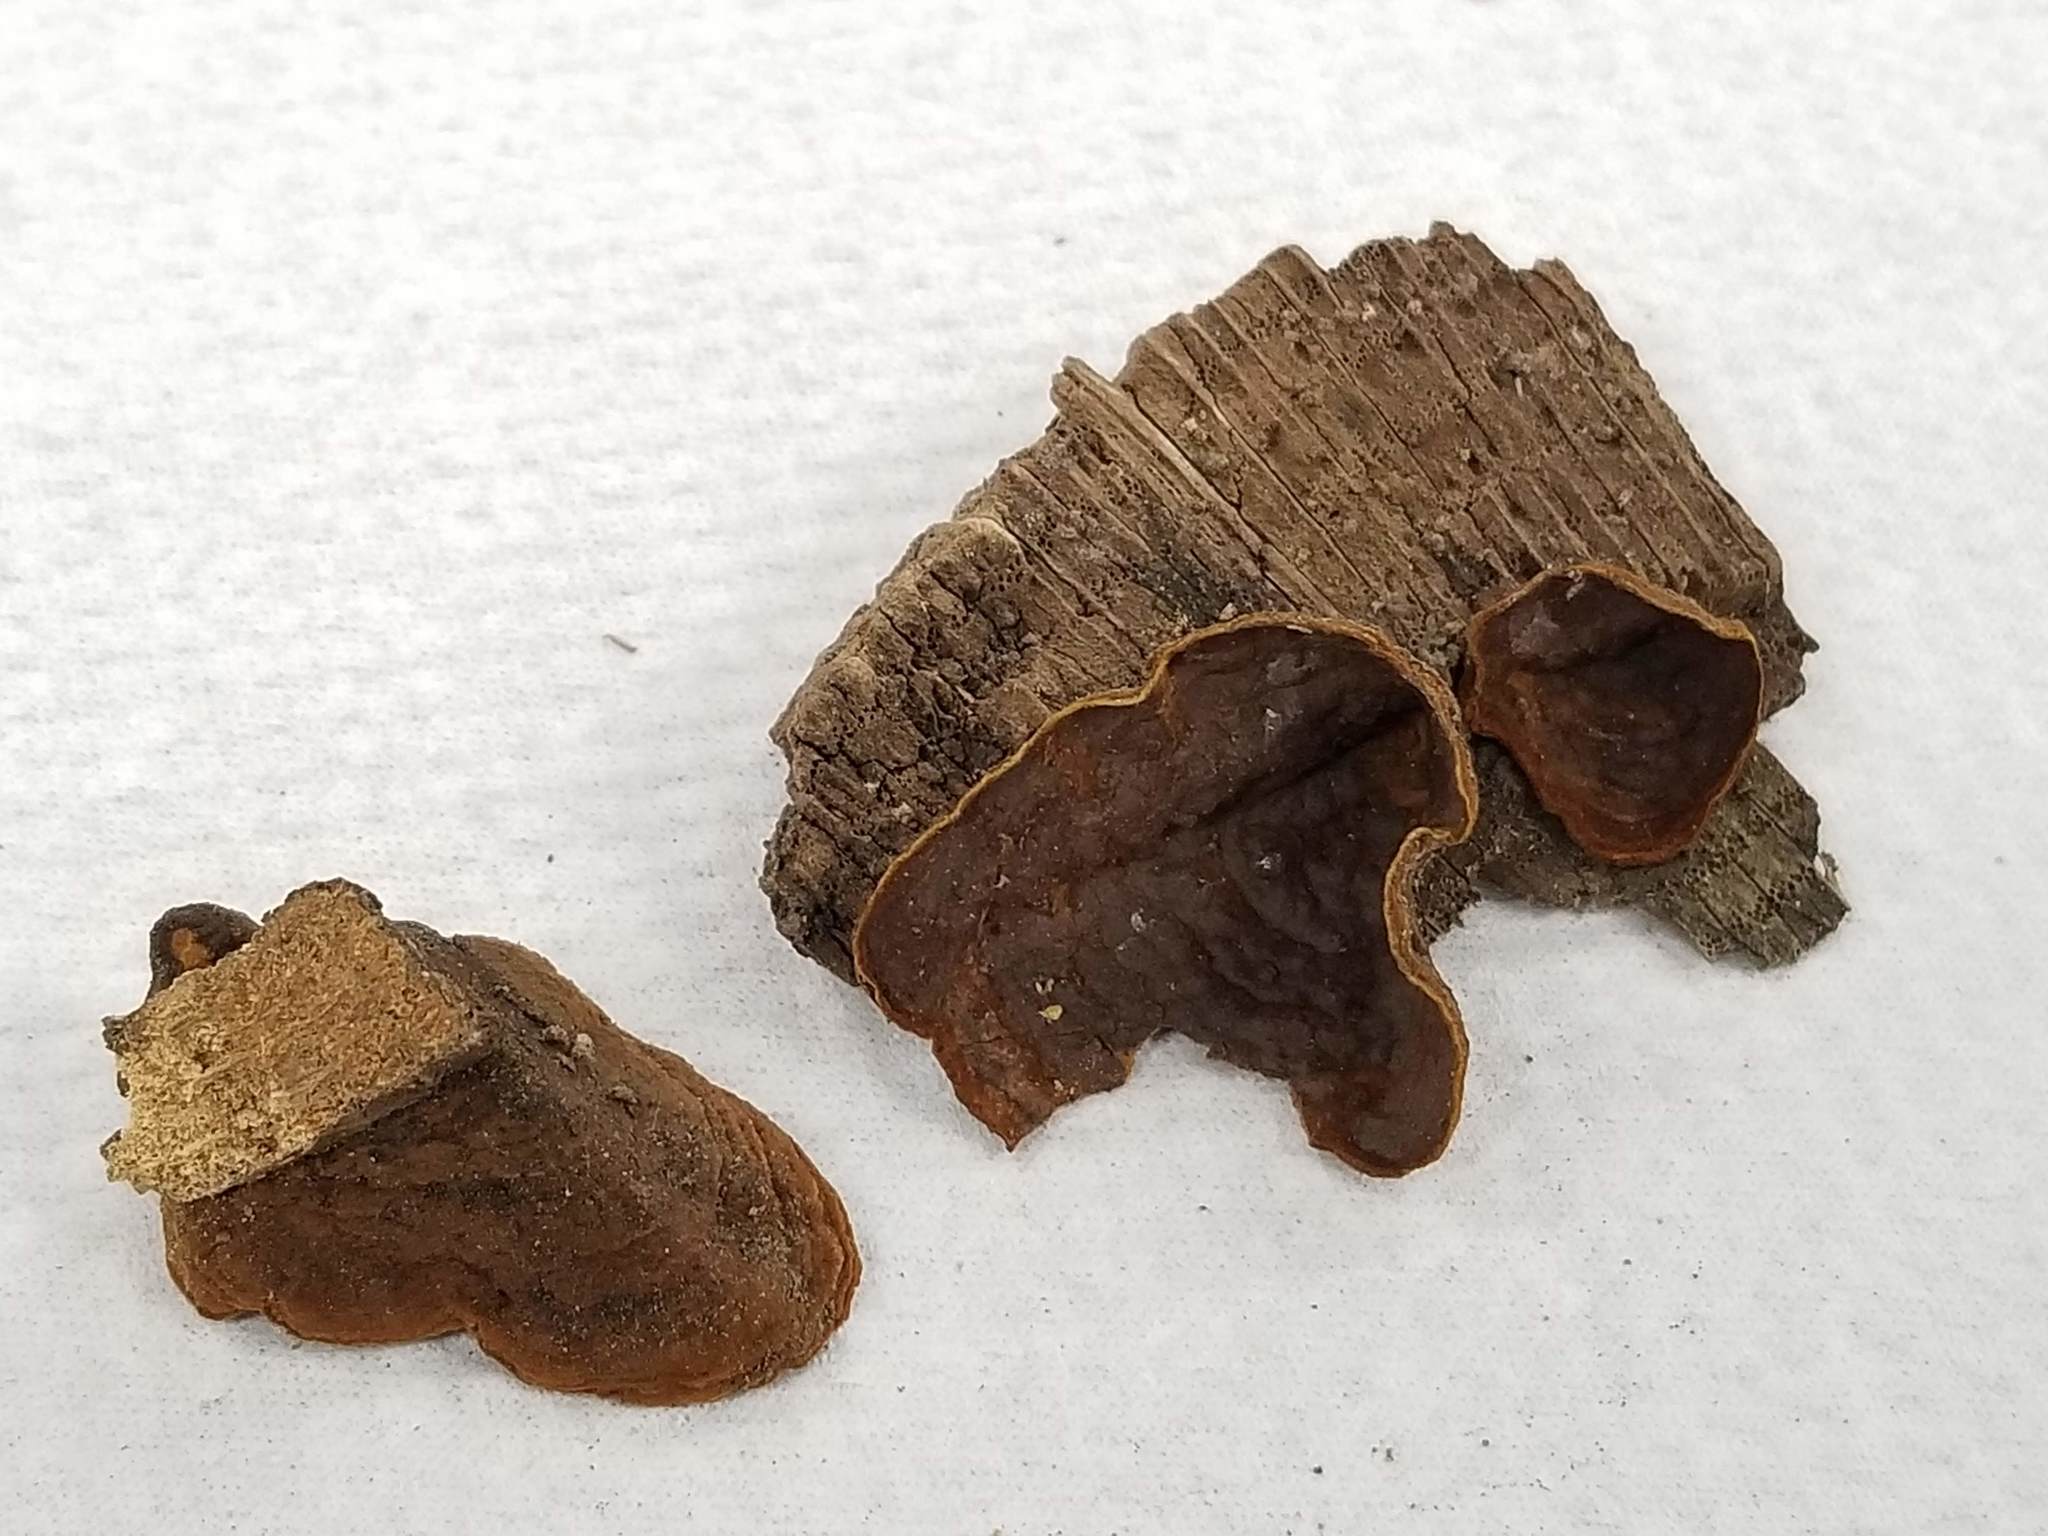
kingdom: Fungi
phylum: Basidiomycota
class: Agaricomycetes
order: Hymenochaetales
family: Hymenochaetaceae
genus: Hymenochaete
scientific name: Hymenochaete rubiginosa
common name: Oak curtain crust
